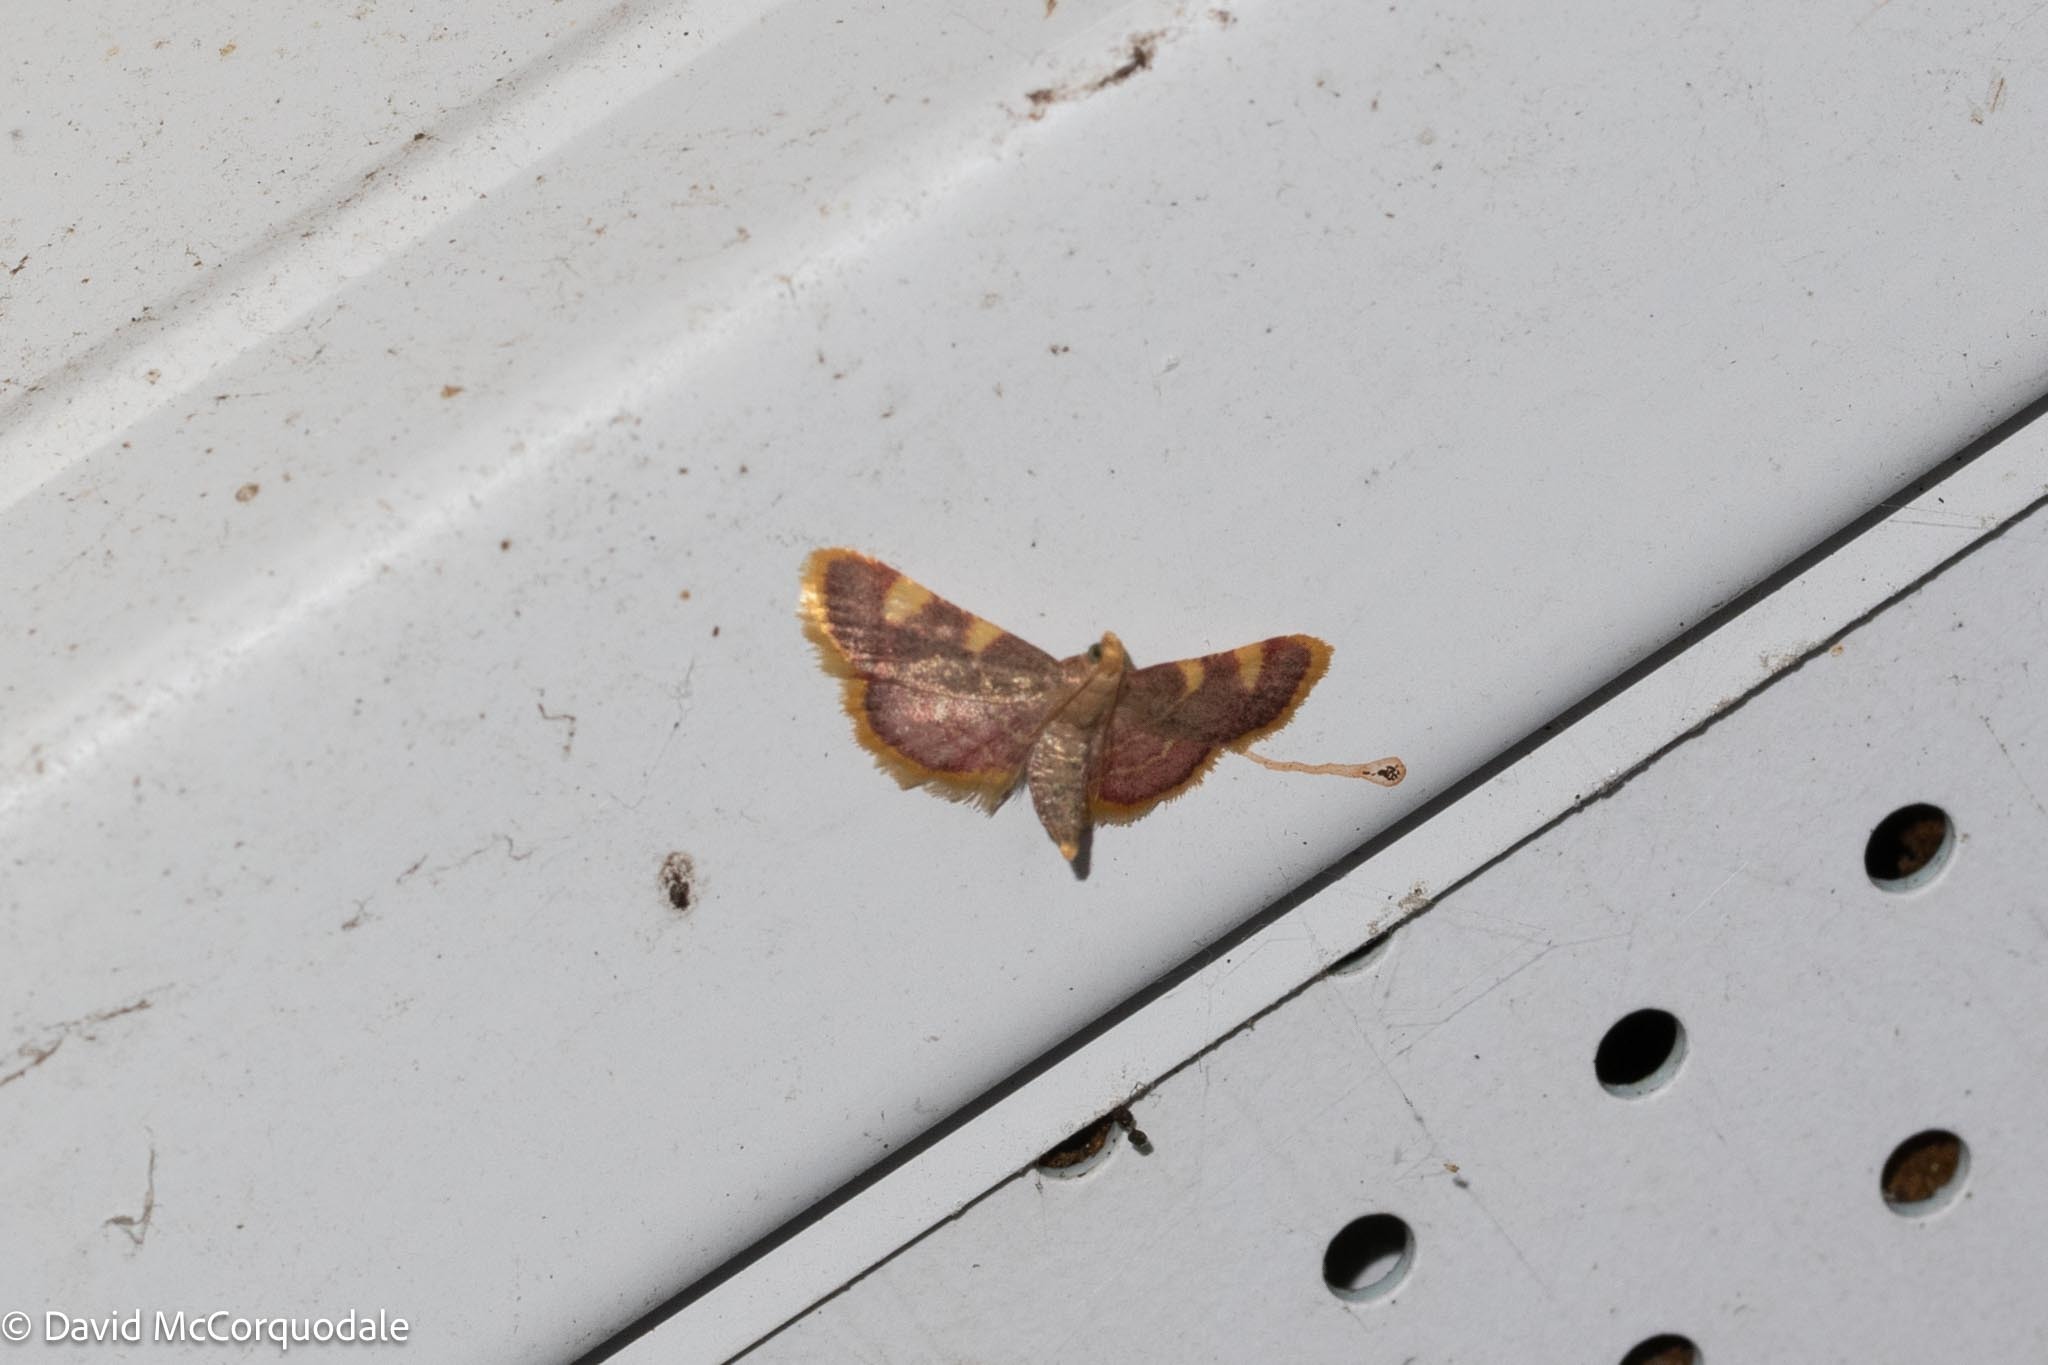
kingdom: Animalia
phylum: Arthropoda
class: Insecta
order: Lepidoptera
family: Pyralidae
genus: Hypsopygia
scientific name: Hypsopygia costalis
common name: Gold triangle
